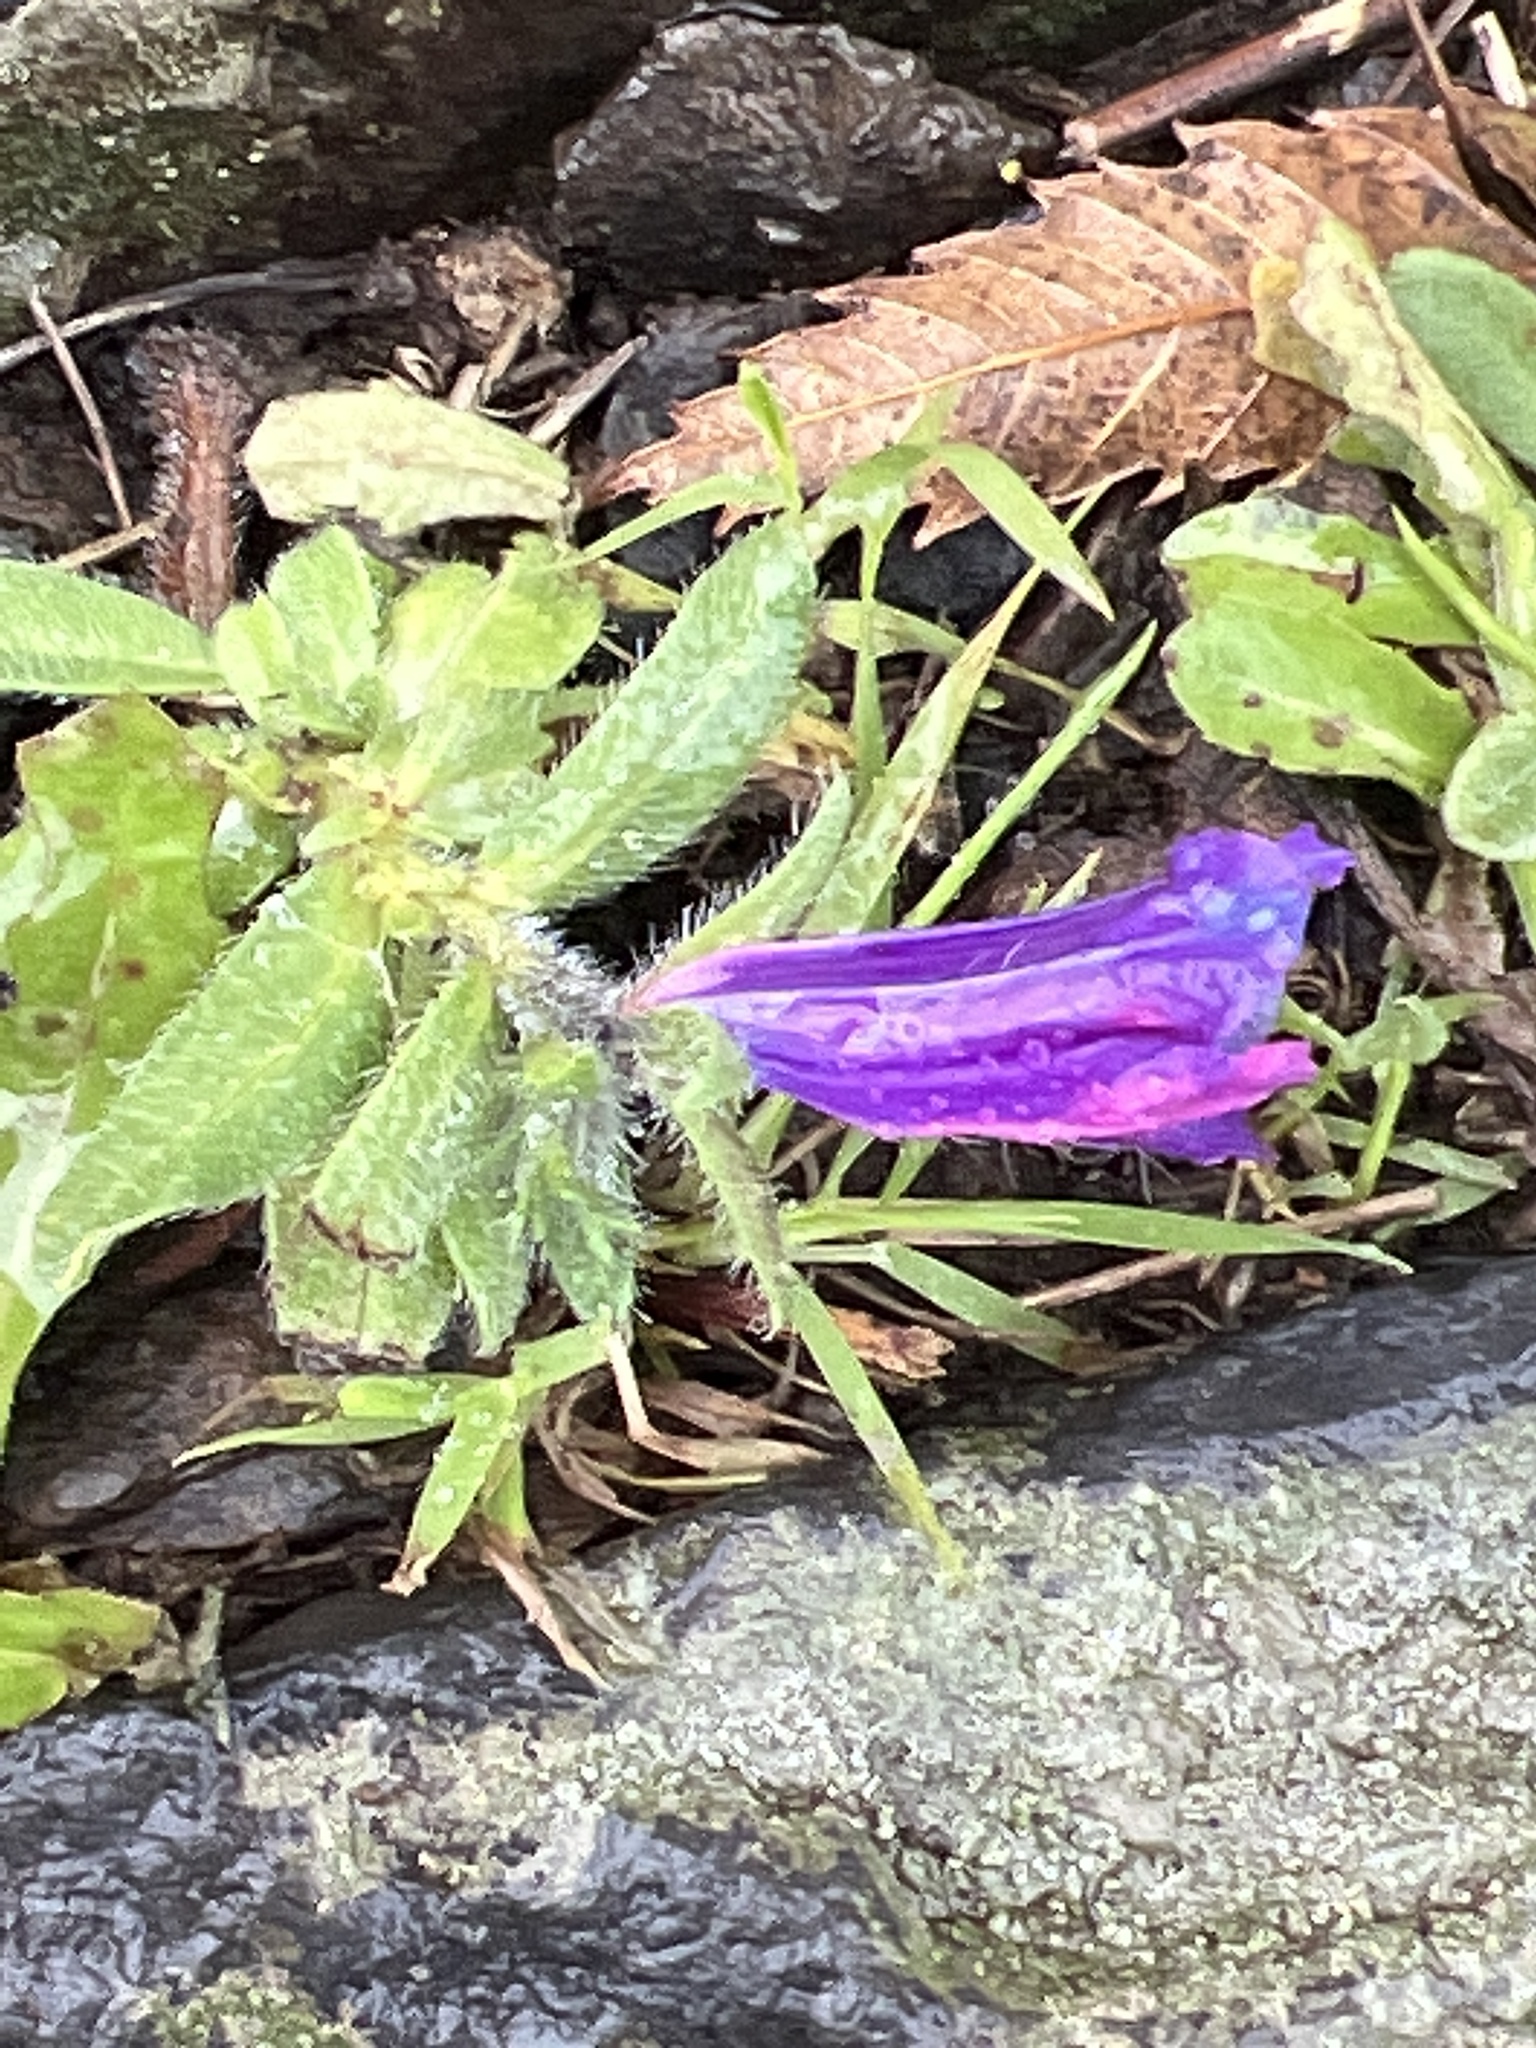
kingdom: Plantae
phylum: Tracheophyta
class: Magnoliopsida
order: Boraginales
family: Boraginaceae
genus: Echium
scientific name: Echium plantagineum
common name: Purple viper's-bugloss
